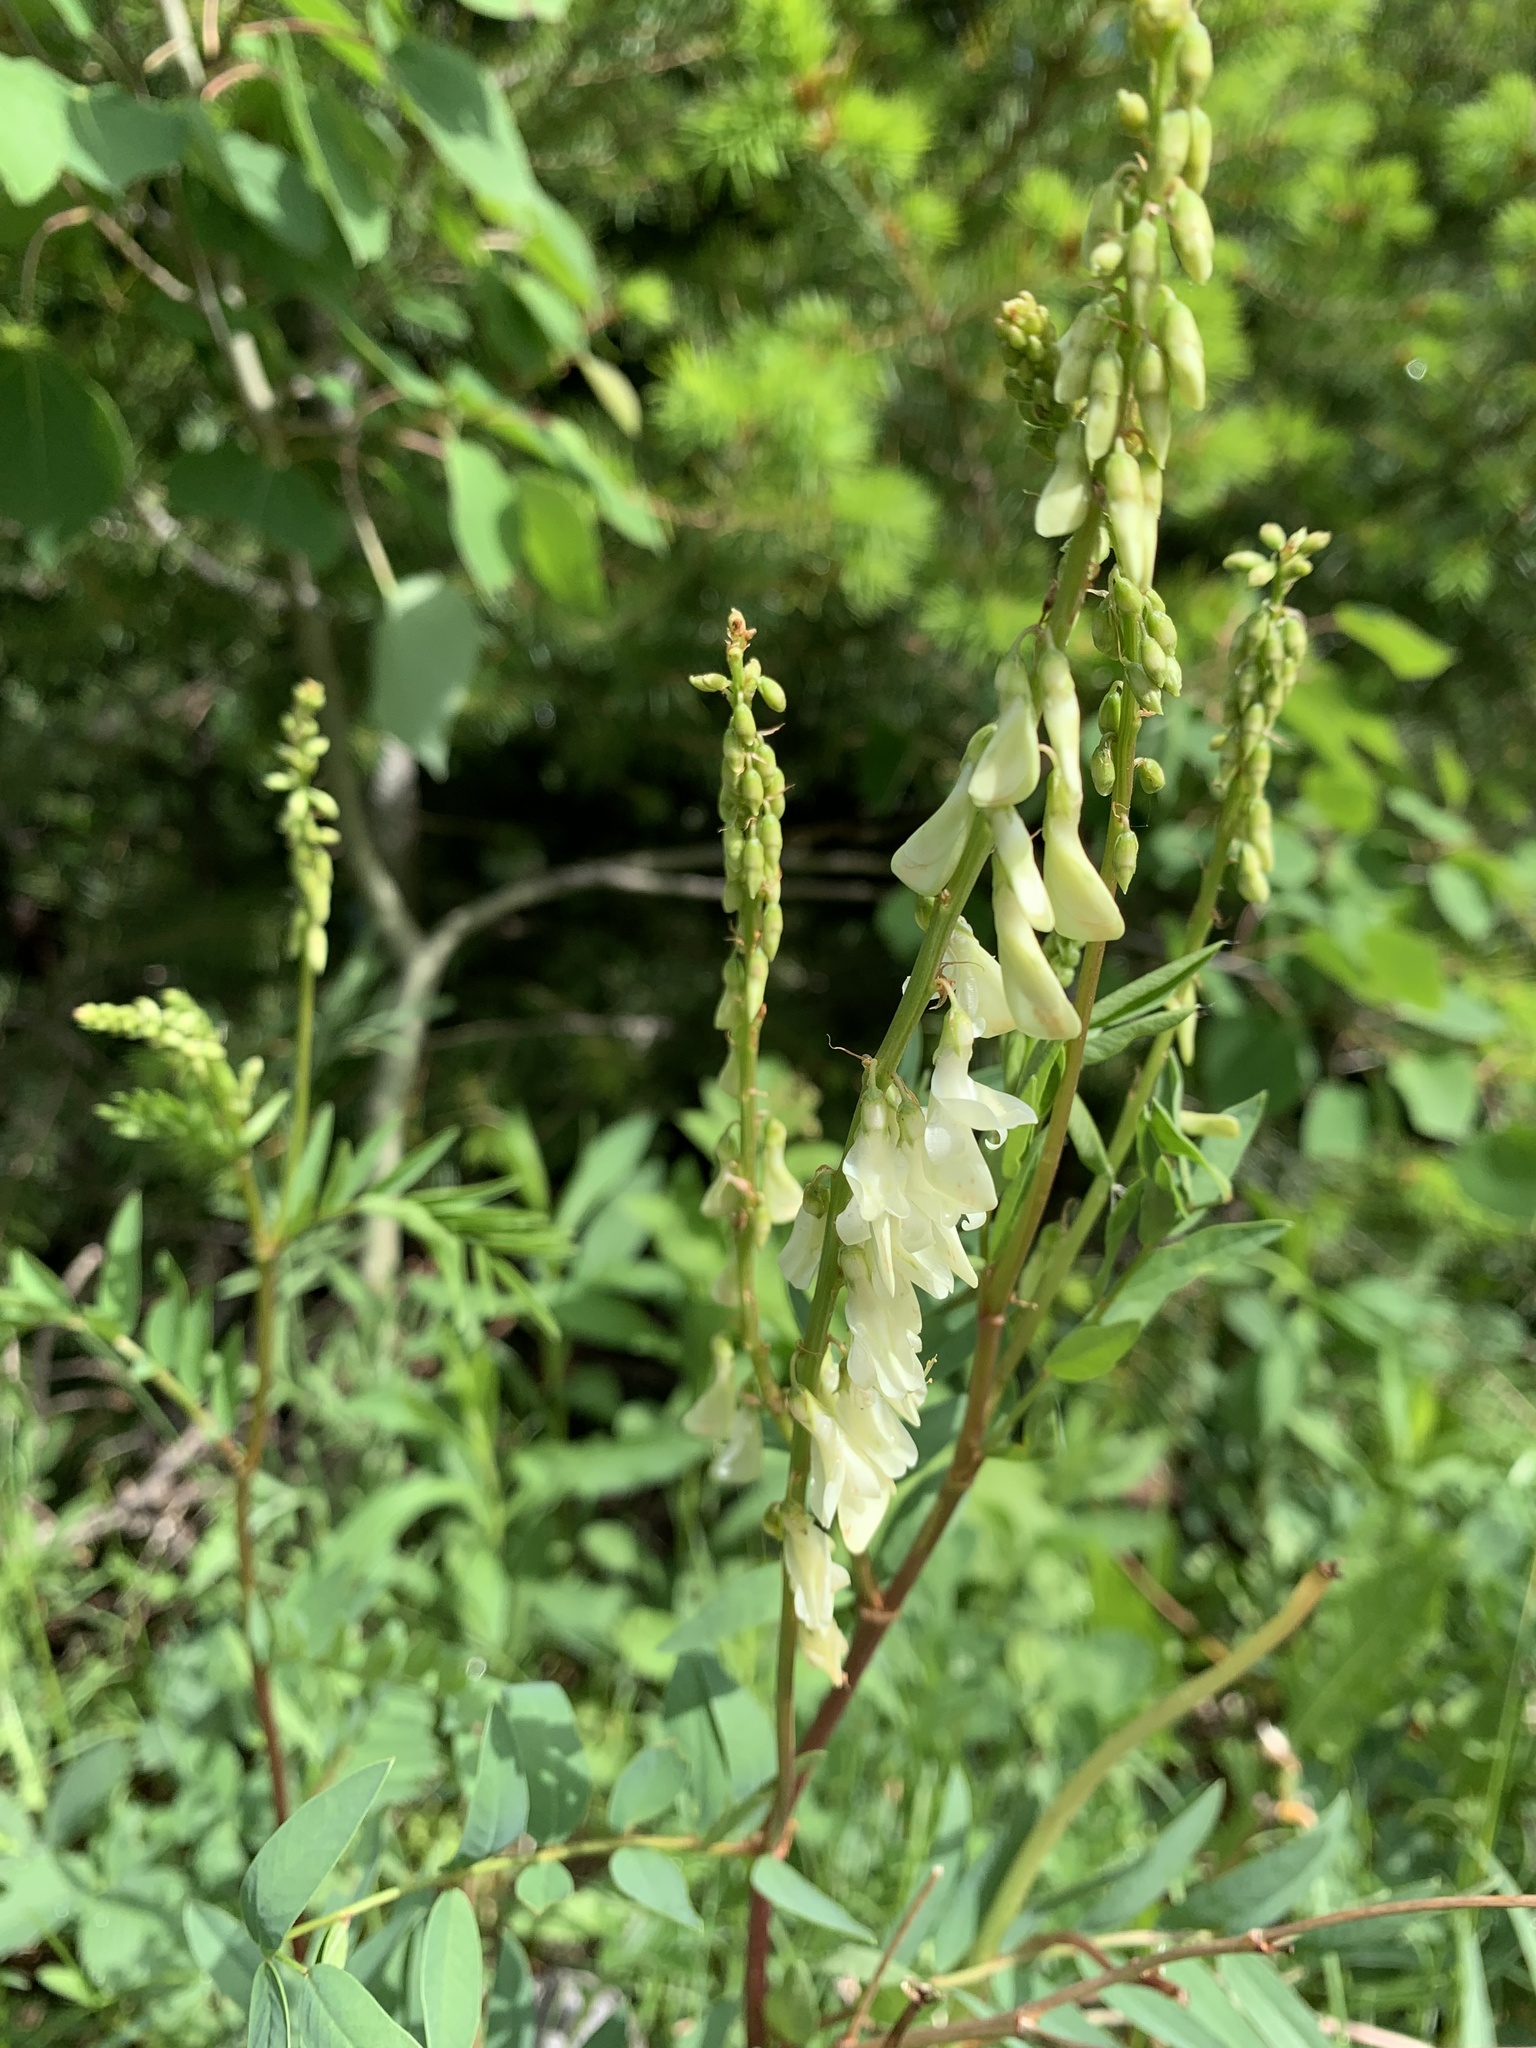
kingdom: Plantae
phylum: Tracheophyta
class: Magnoliopsida
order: Fabales
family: Fabaceae
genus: Hedysarum
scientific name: Hedysarum sulphurescens
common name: Sulphur hedysarum
